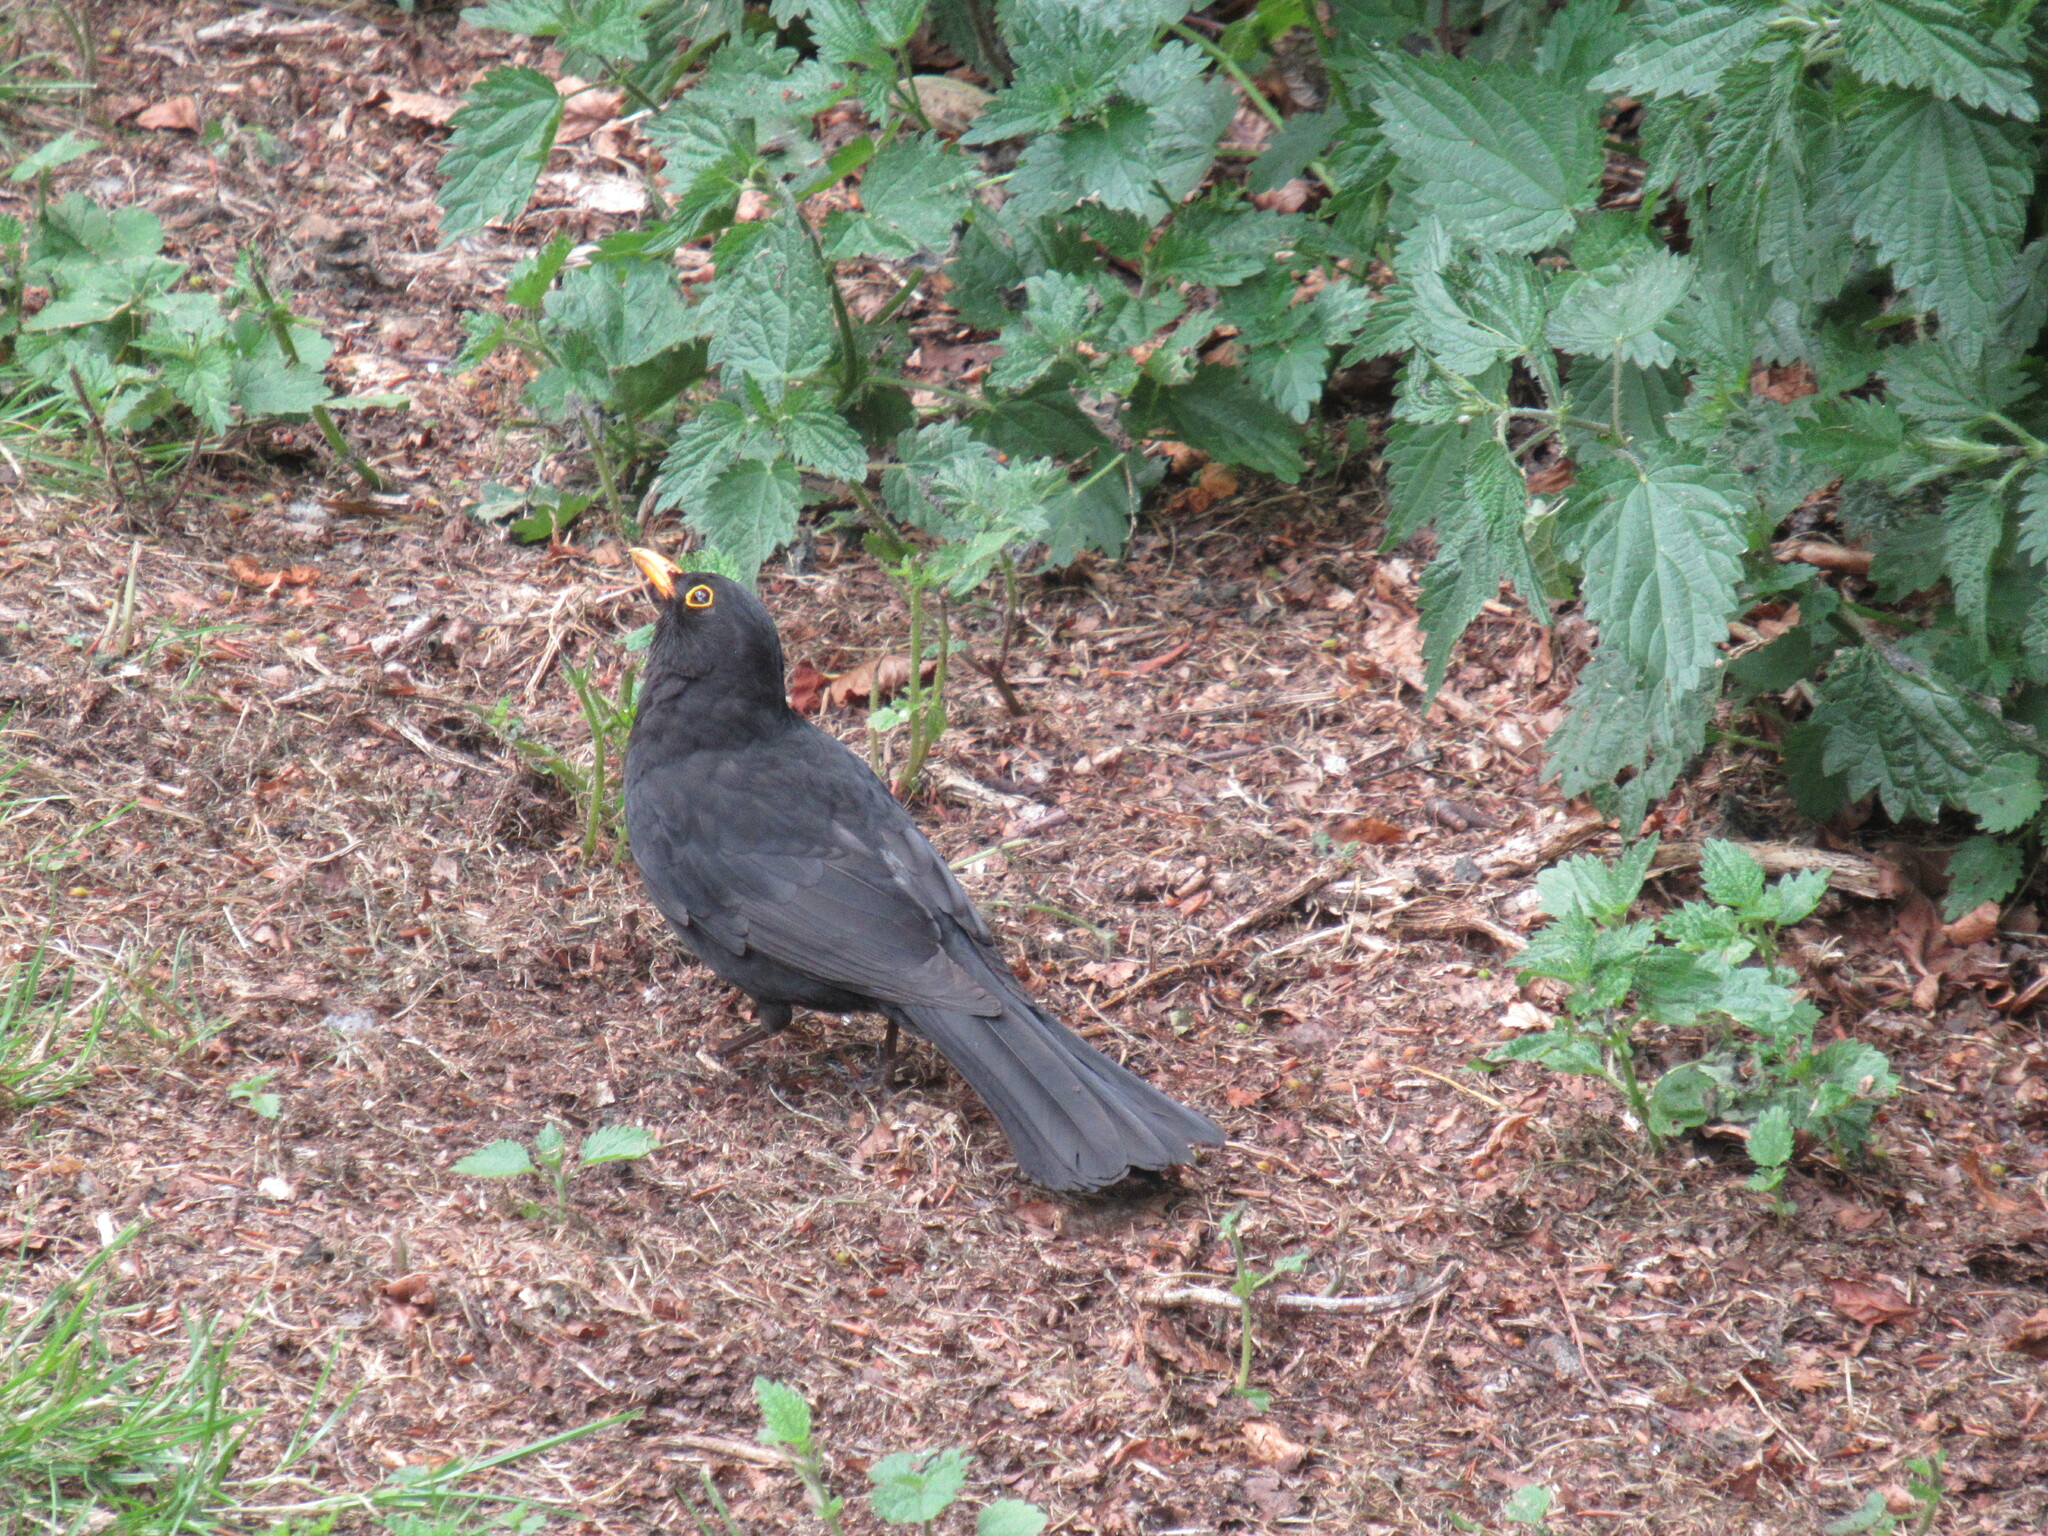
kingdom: Animalia
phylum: Chordata
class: Aves
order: Passeriformes
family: Turdidae
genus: Turdus
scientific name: Turdus merula
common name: Common blackbird
